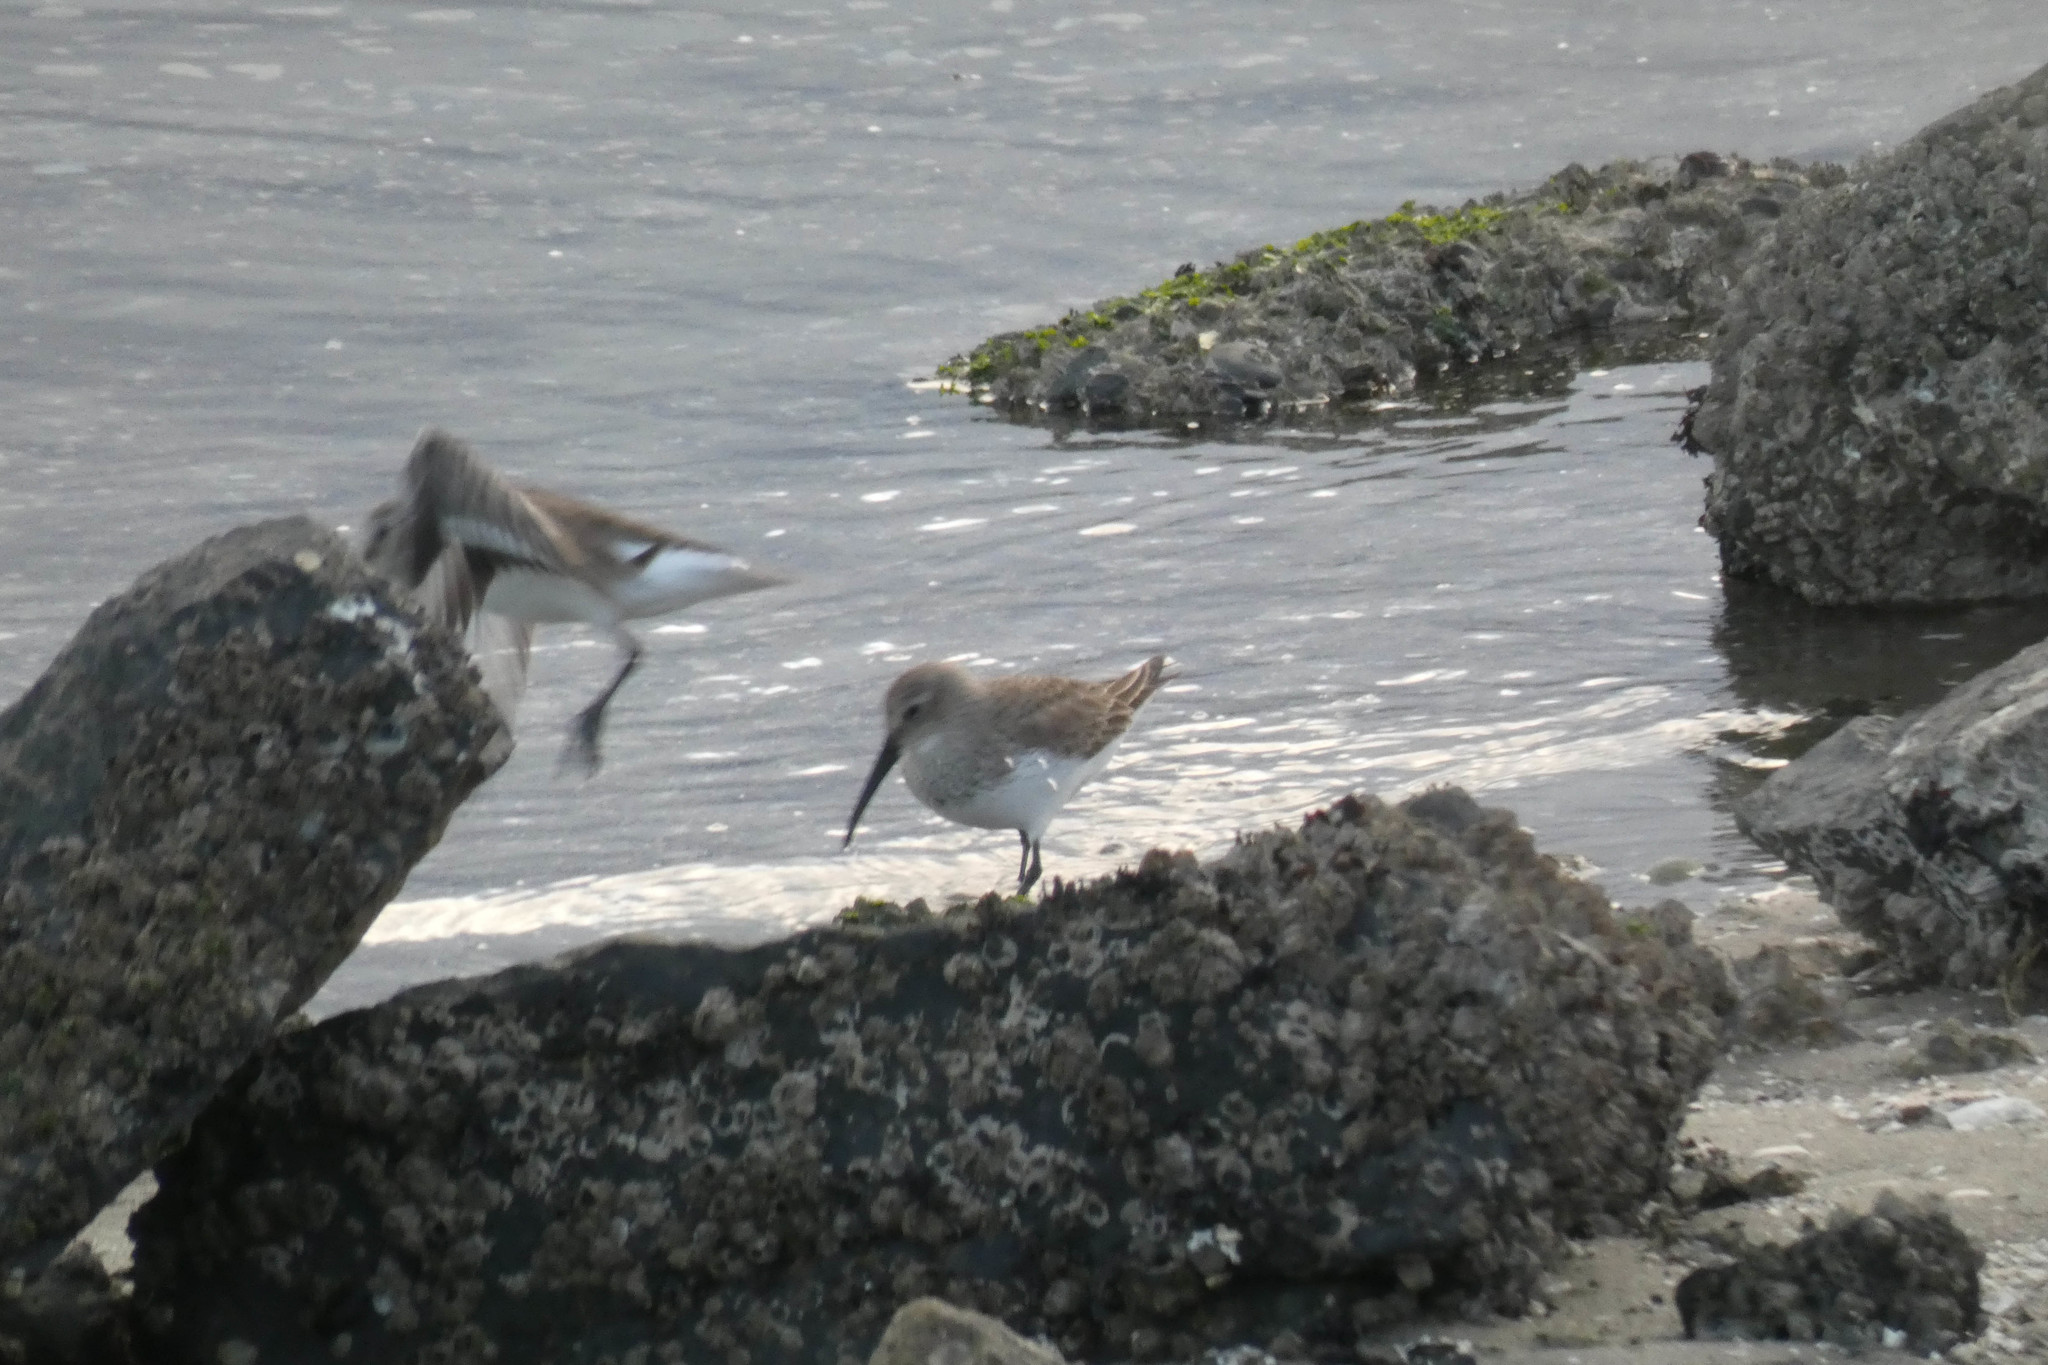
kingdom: Animalia
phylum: Chordata
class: Aves
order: Charadriiformes
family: Scolopacidae
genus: Calidris
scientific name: Calidris alpina
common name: Dunlin
